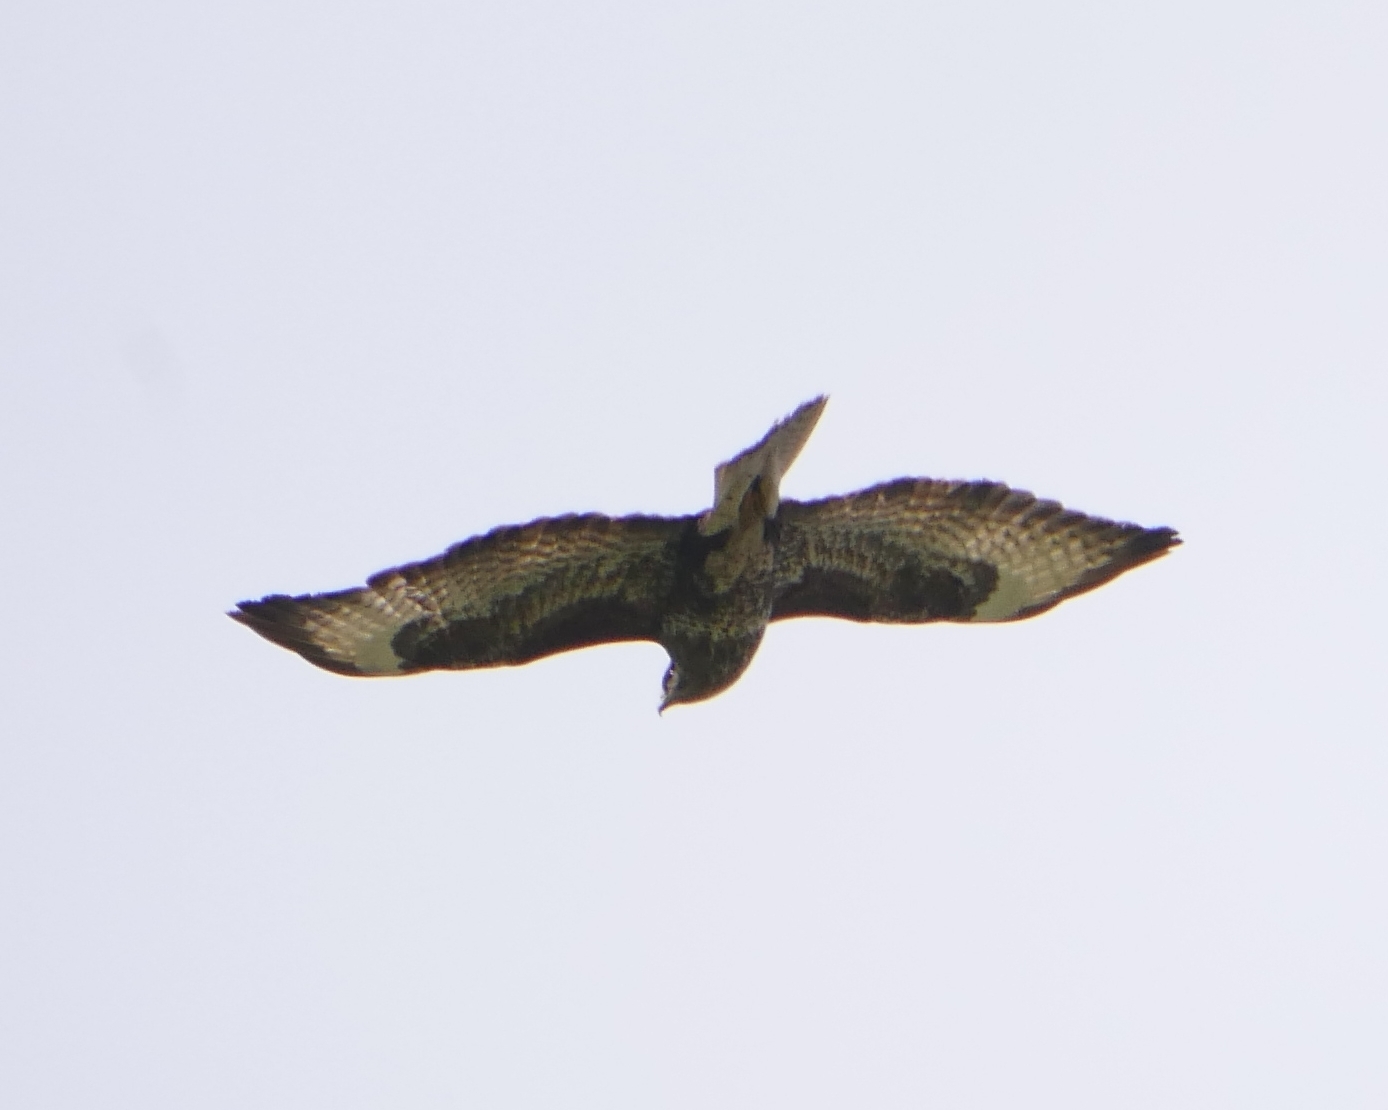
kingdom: Animalia
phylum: Chordata
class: Aves
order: Accipitriformes
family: Accipitridae
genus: Buteo
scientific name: Buteo buteo
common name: Common buzzard
